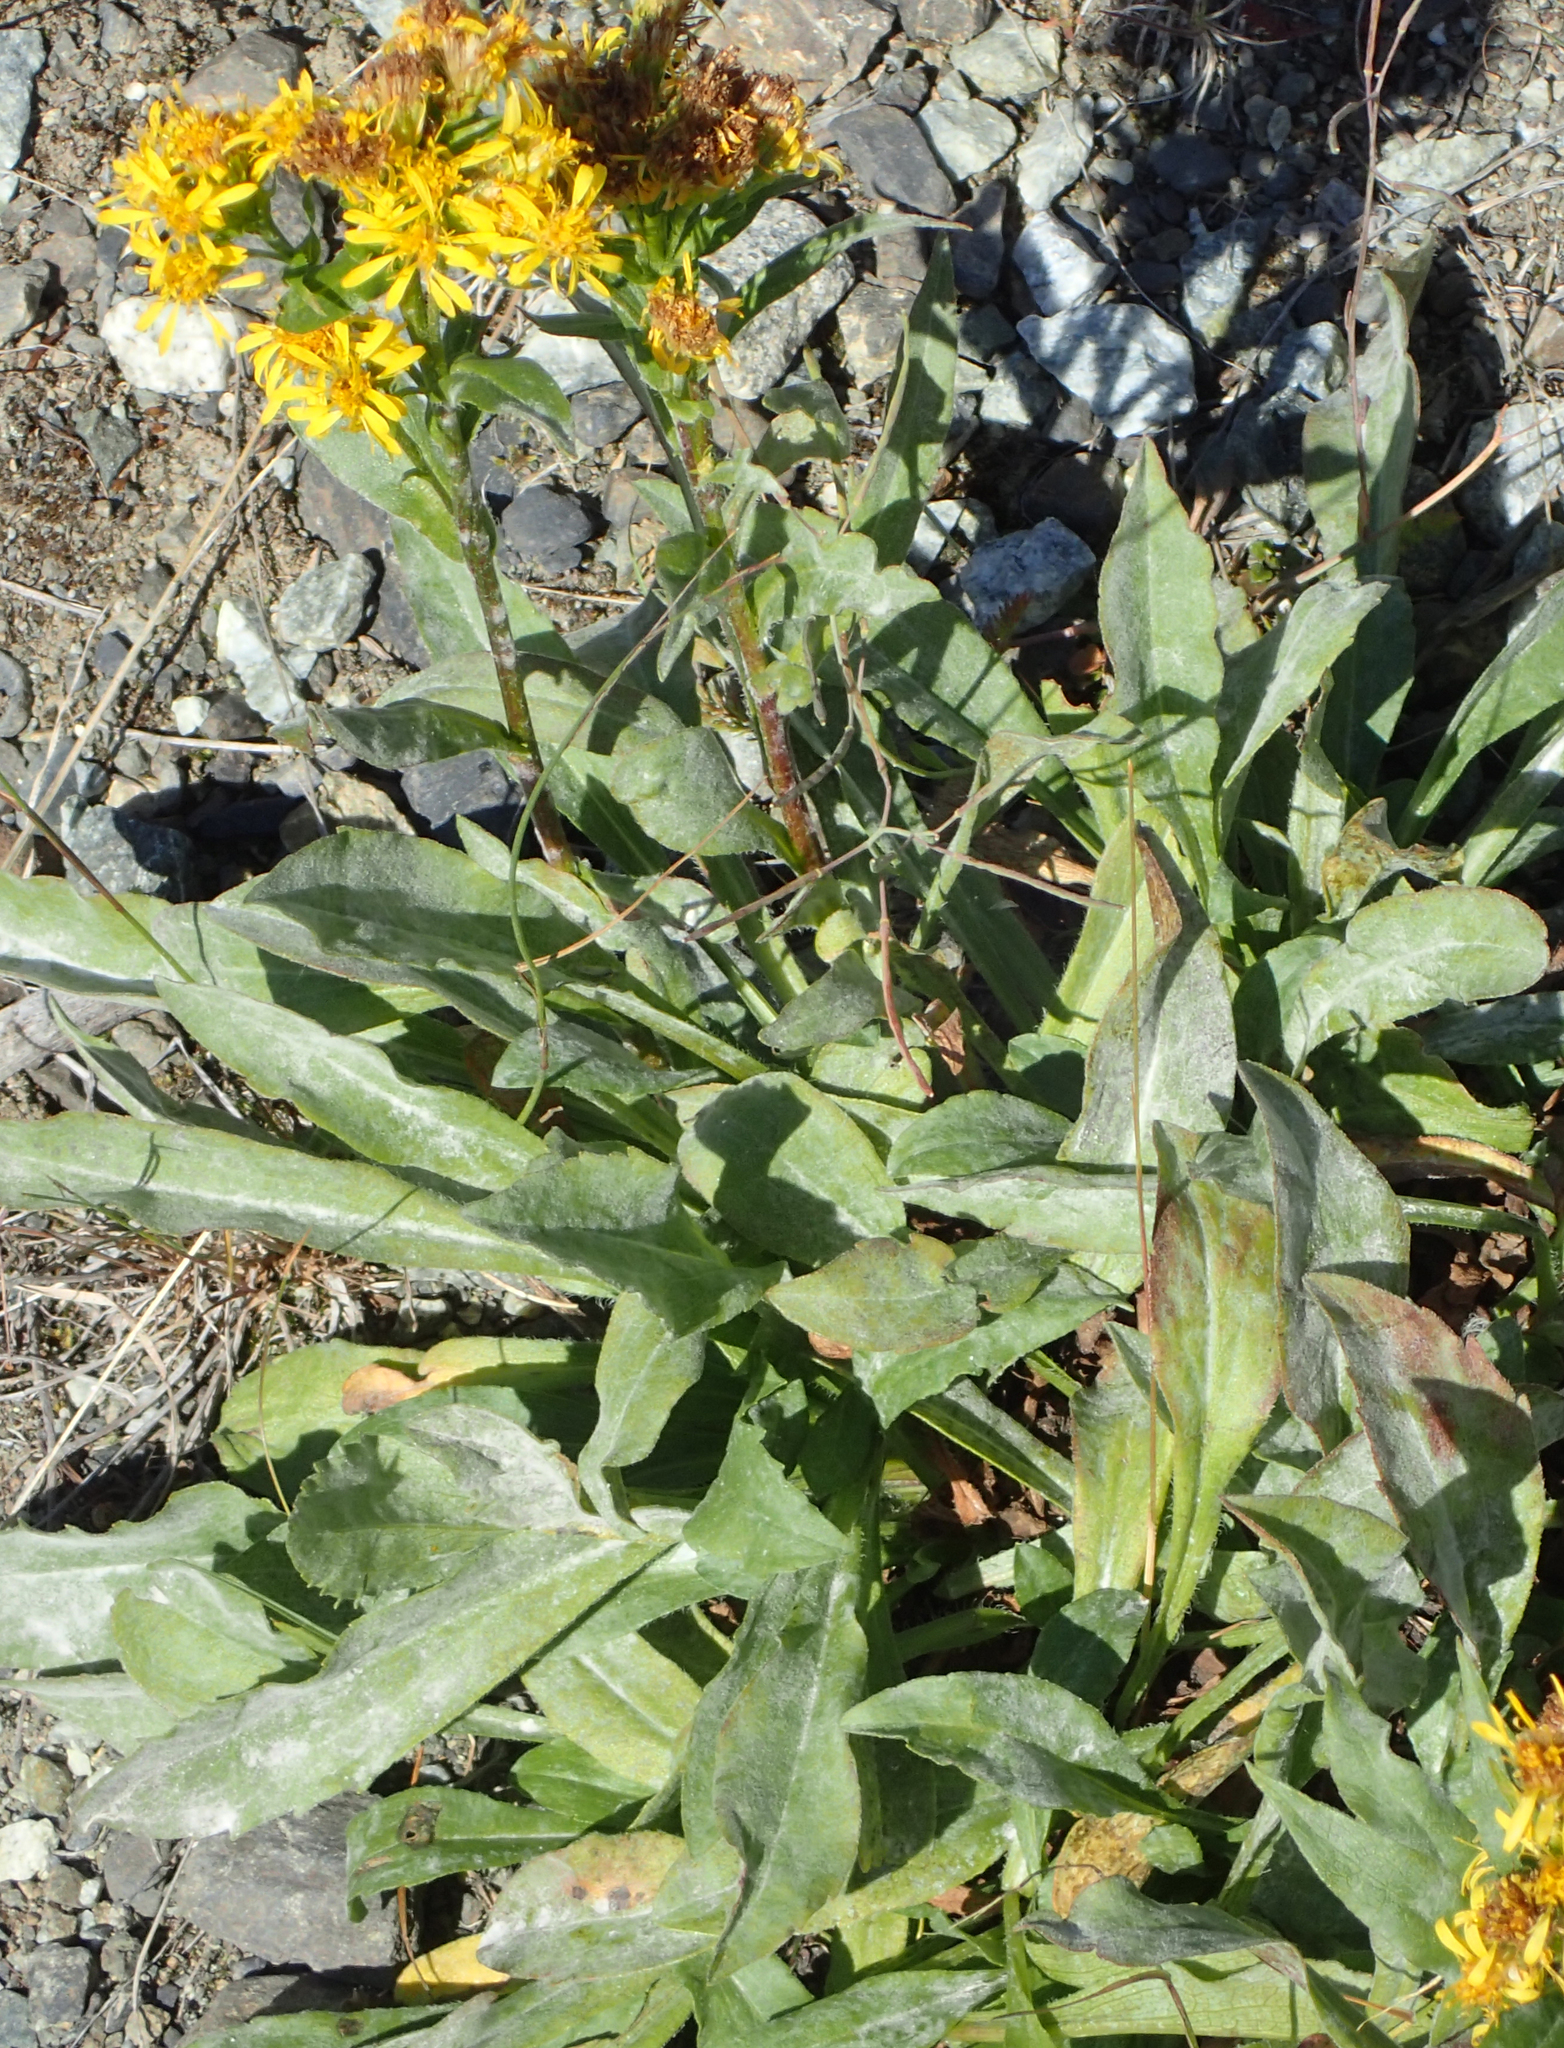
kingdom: Plantae
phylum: Tracheophyta
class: Magnoliopsida
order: Asterales
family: Asteraceae
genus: Solidago
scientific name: Solidago multiradiata
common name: Northern goldenrod
